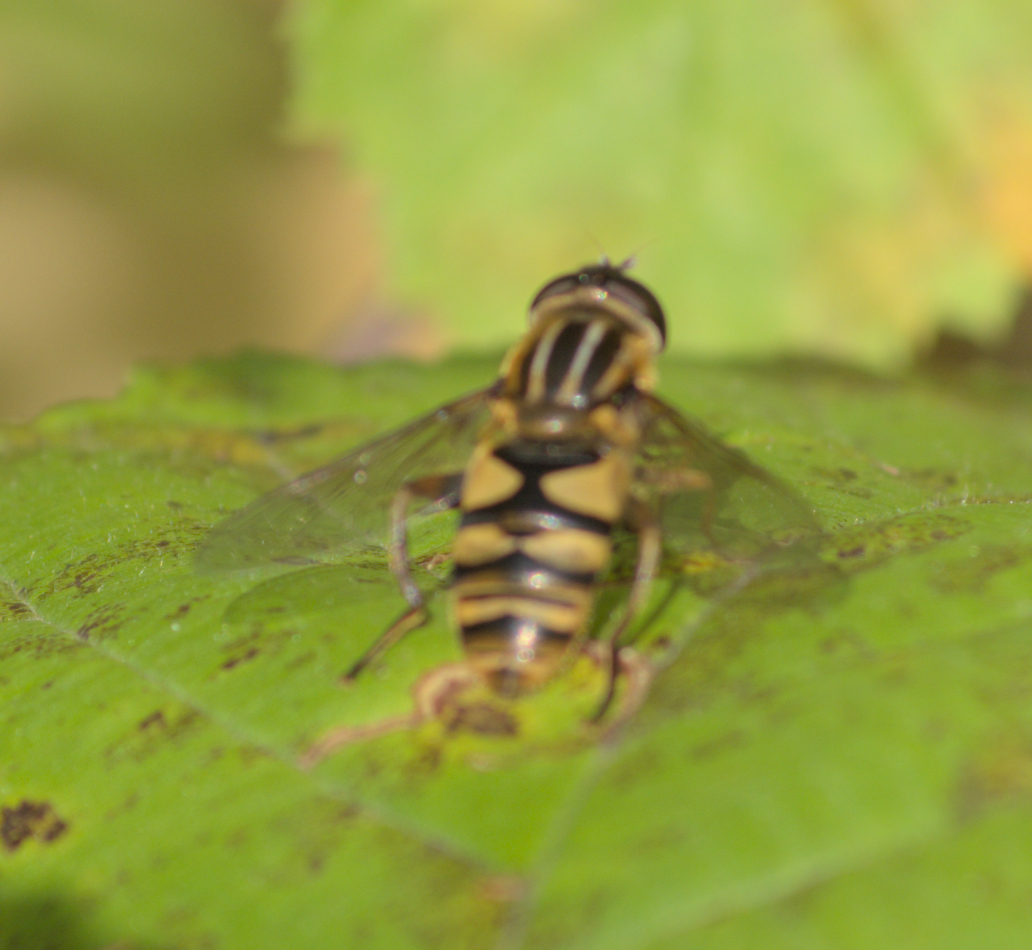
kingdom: Animalia
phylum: Arthropoda
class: Insecta
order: Diptera
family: Syrphidae
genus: Helophilus
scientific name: Helophilus fasciatus
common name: Narrow-headed marsh fly
